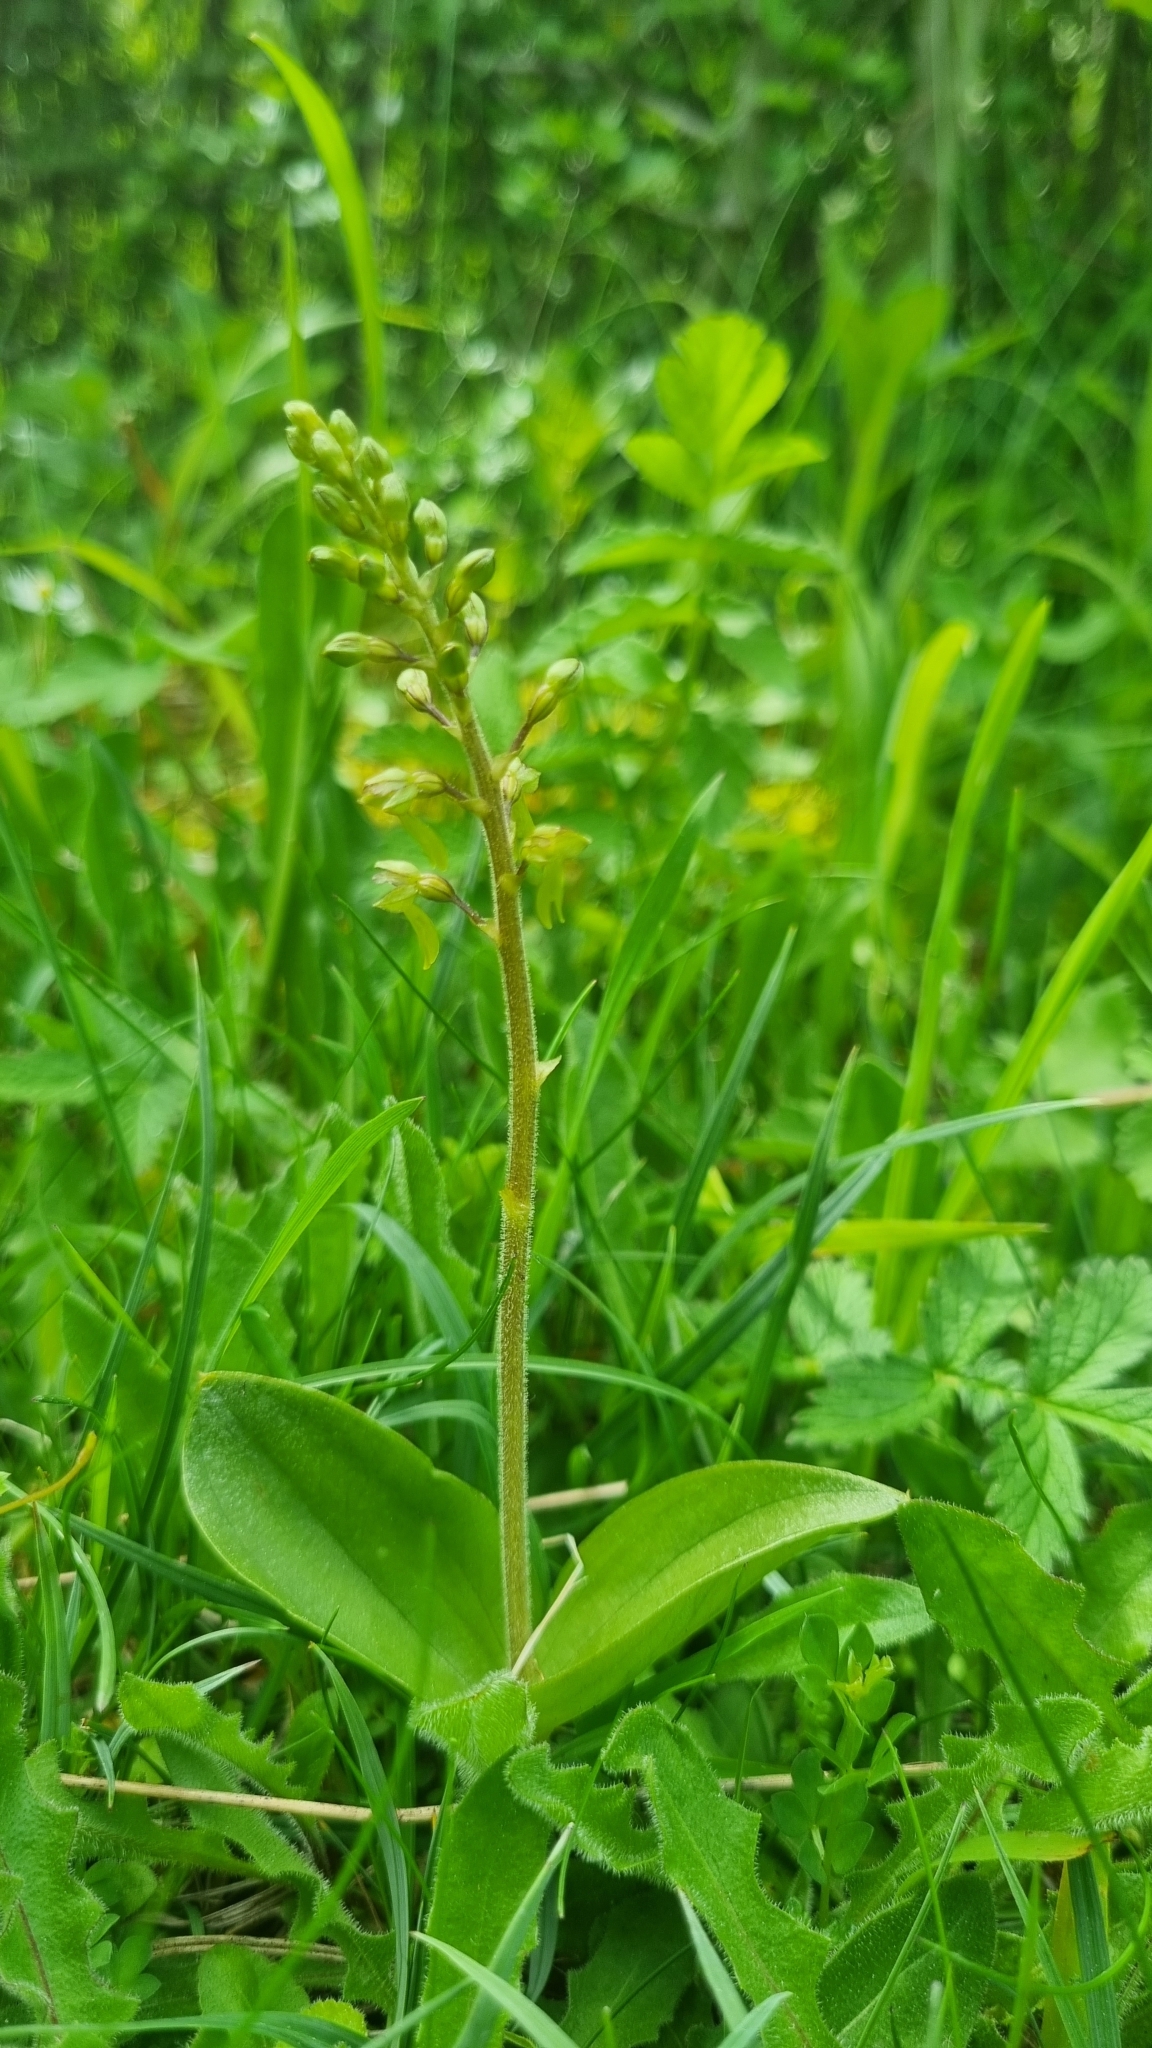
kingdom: Plantae
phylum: Tracheophyta
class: Liliopsida
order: Asparagales
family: Orchidaceae
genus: Neottia
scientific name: Neottia ovata
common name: Common twayblade
